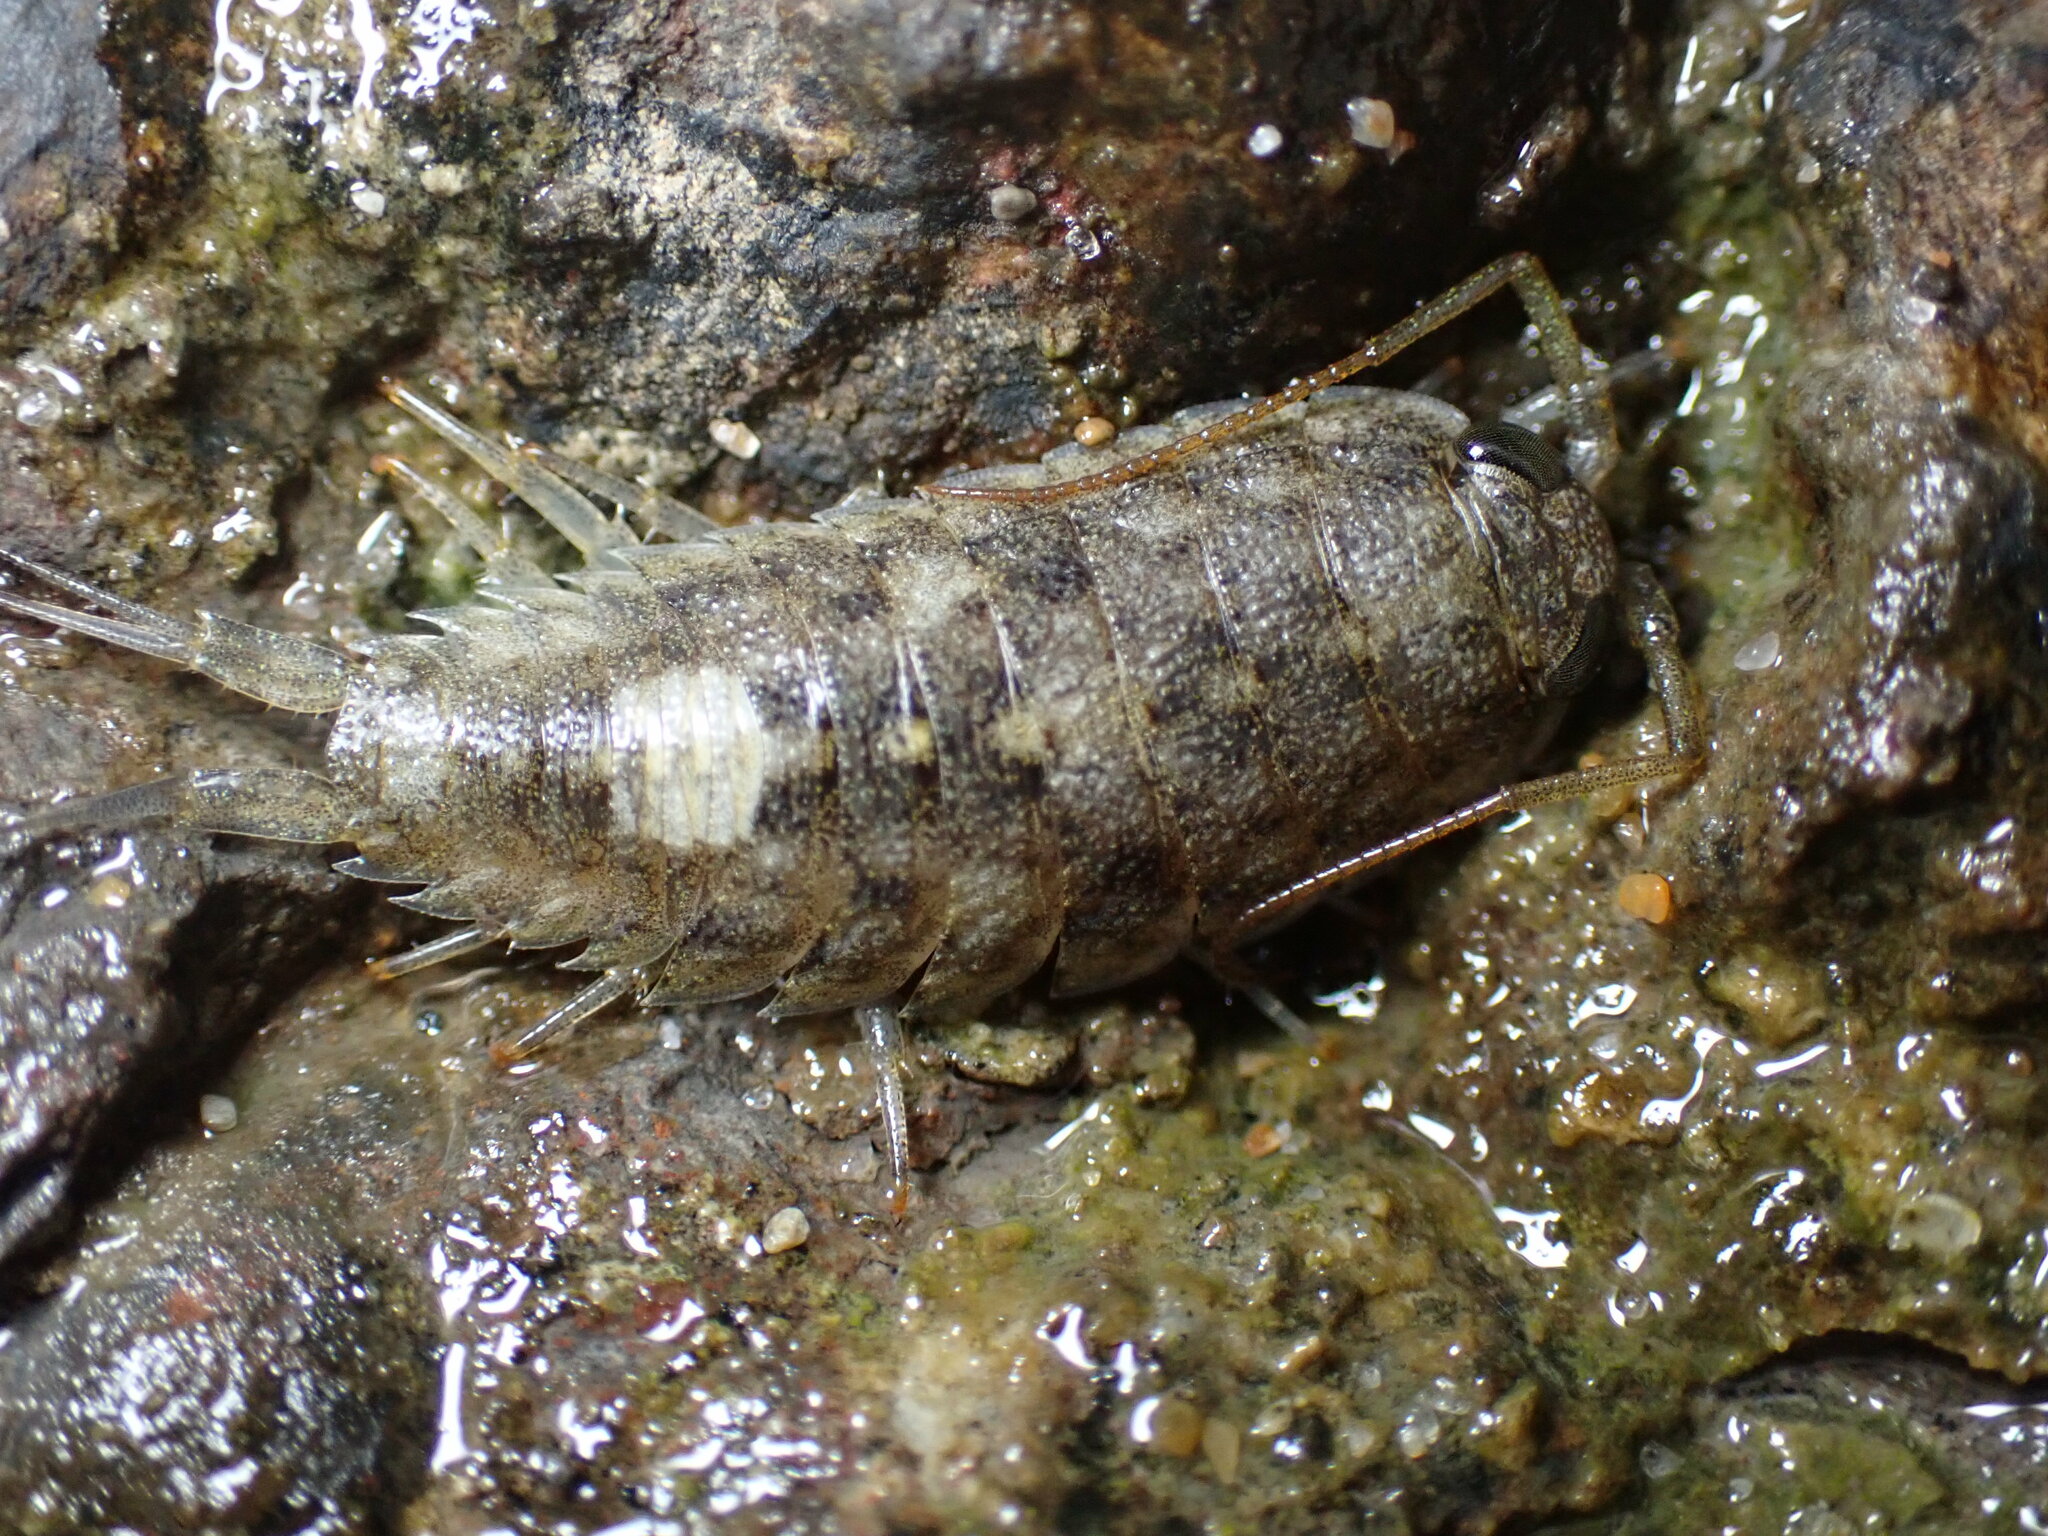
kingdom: Animalia
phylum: Arthropoda
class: Malacostraca
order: Isopoda
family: Ligiidae
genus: Ligia
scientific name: Ligia occidentalis
